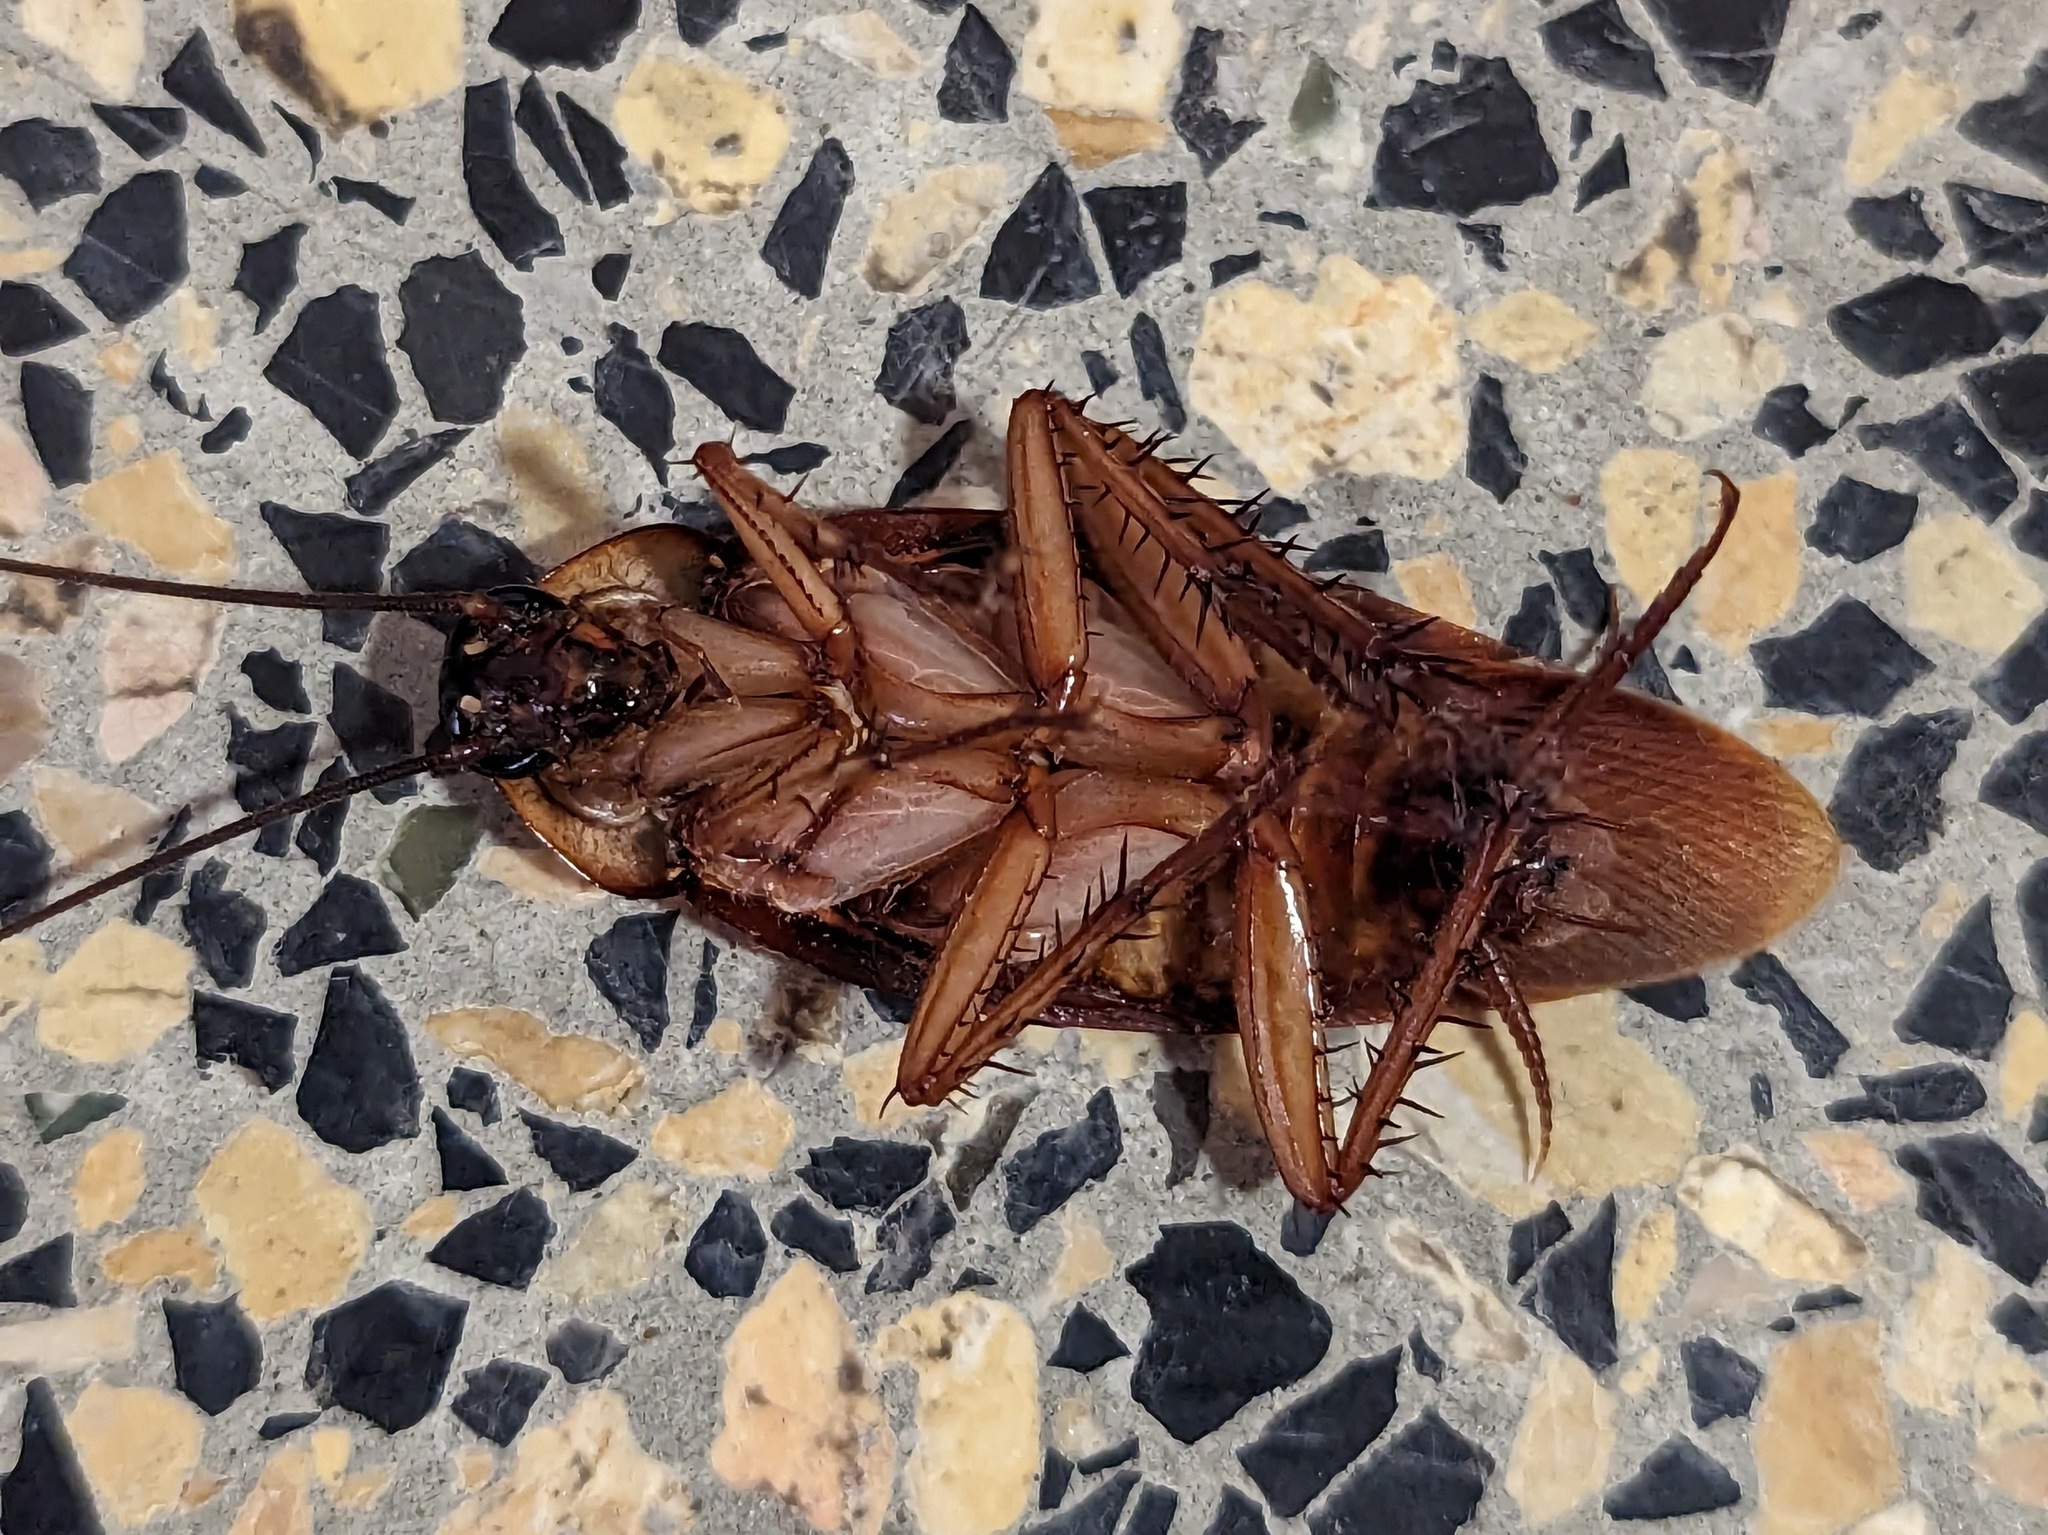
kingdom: Animalia
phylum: Arthropoda
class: Insecta
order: Blattodea
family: Blattidae
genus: Periplaneta
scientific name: Periplaneta americana
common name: American cockroach
